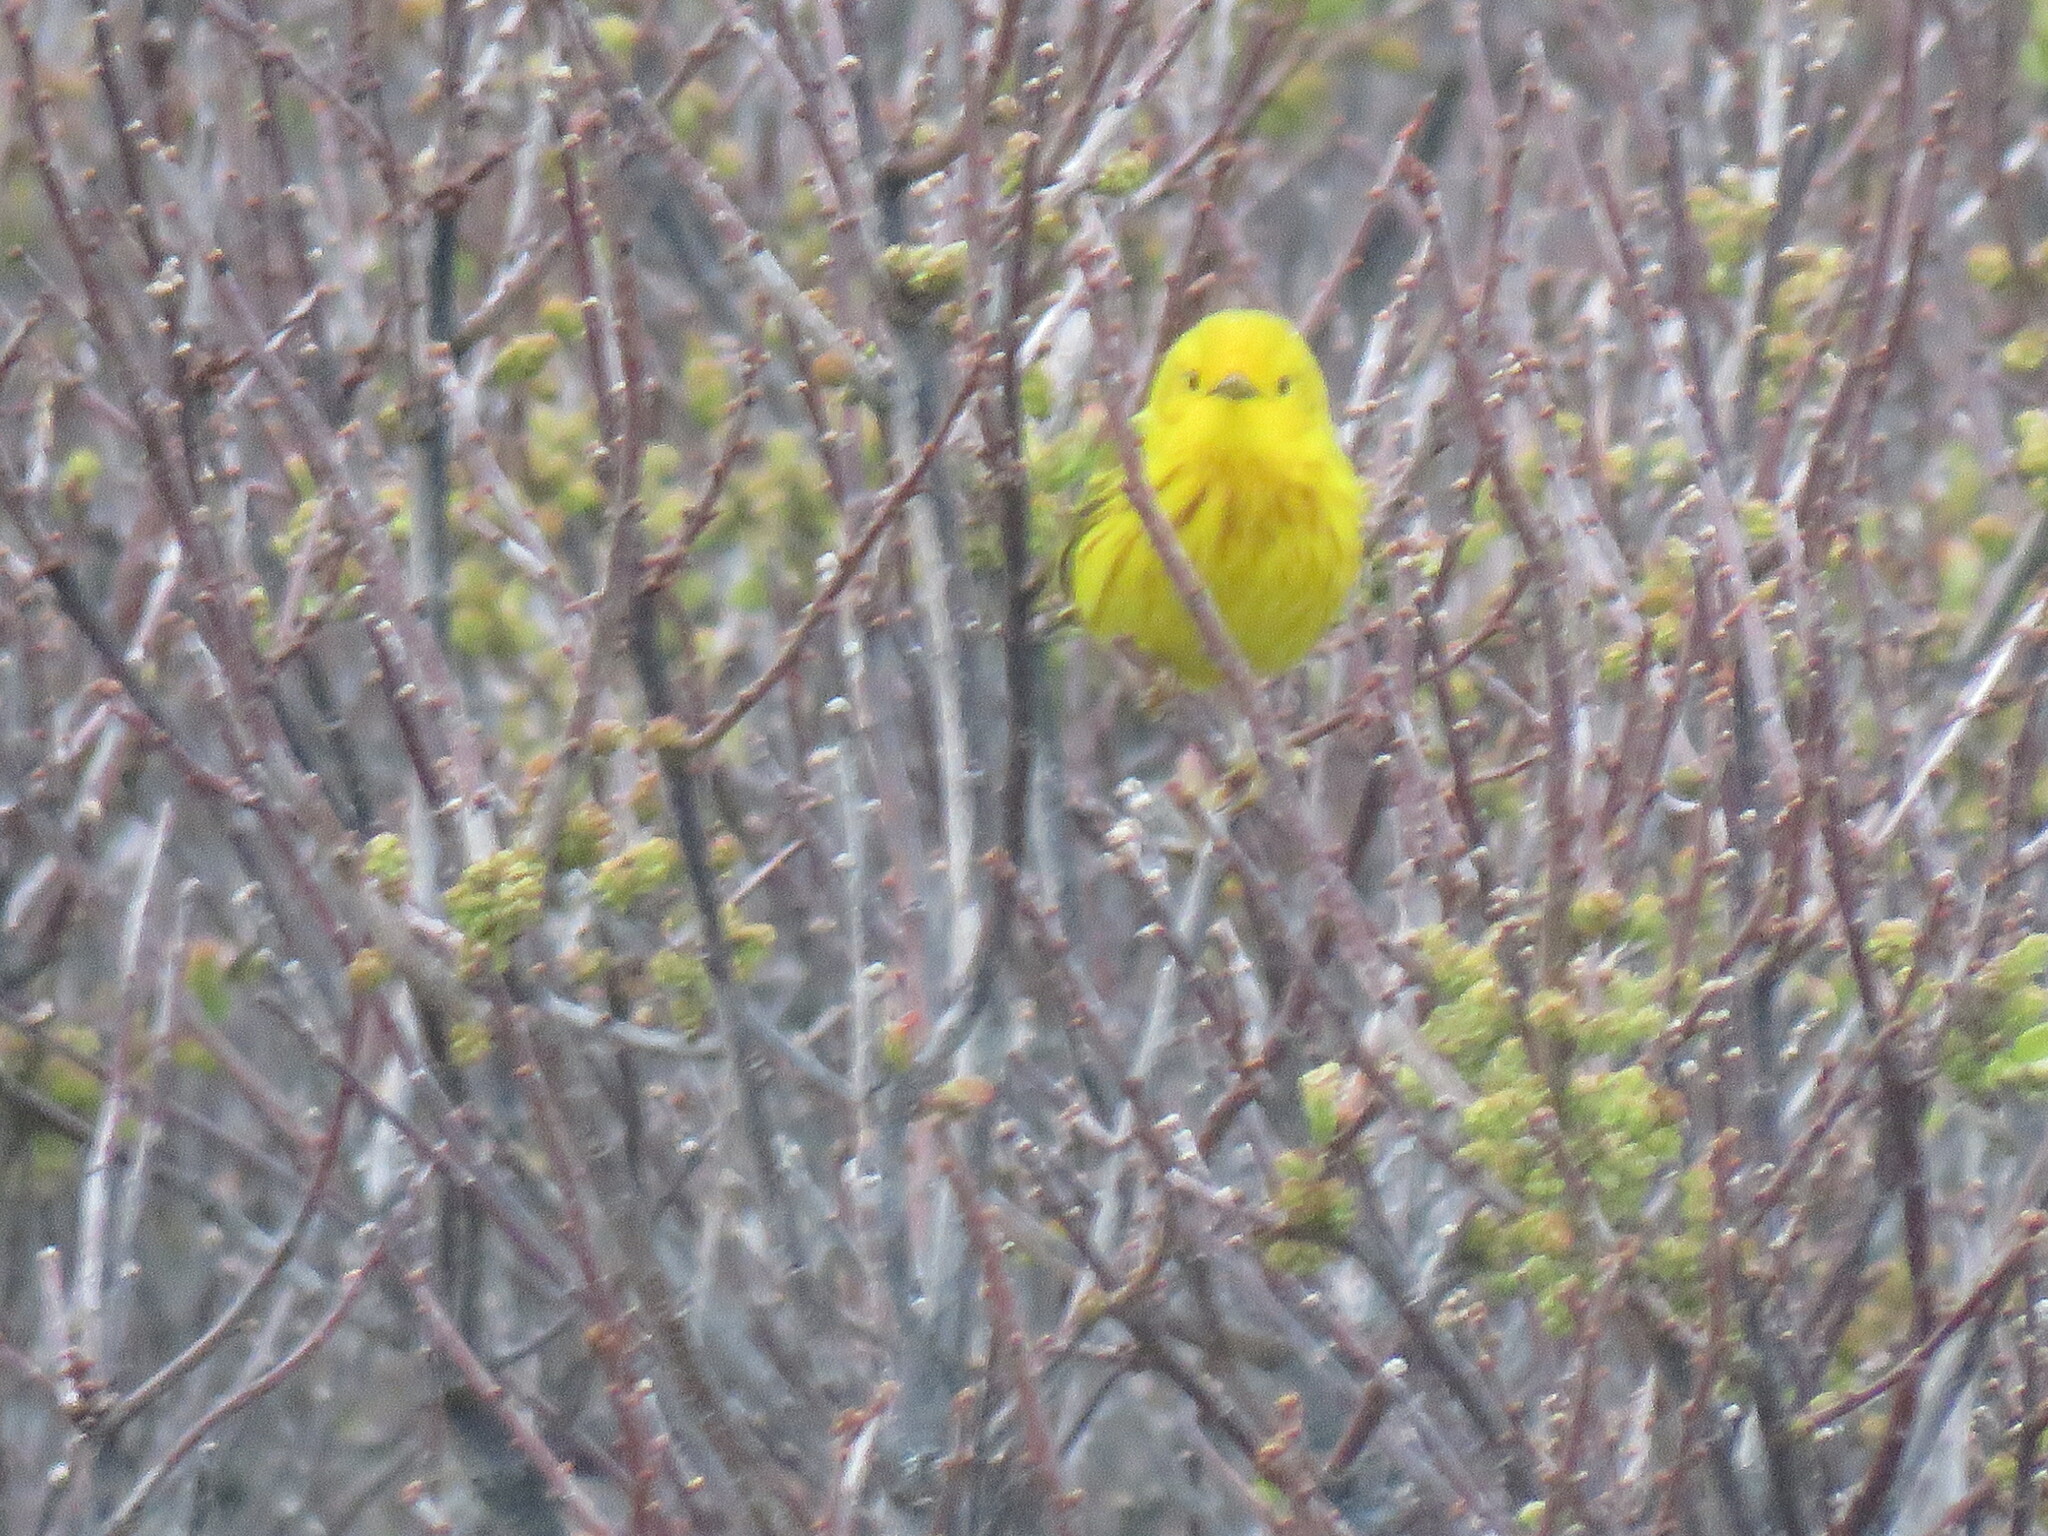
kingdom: Animalia
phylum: Chordata
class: Aves
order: Passeriformes
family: Parulidae
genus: Setophaga
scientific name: Setophaga petechia
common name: Yellow warbler
